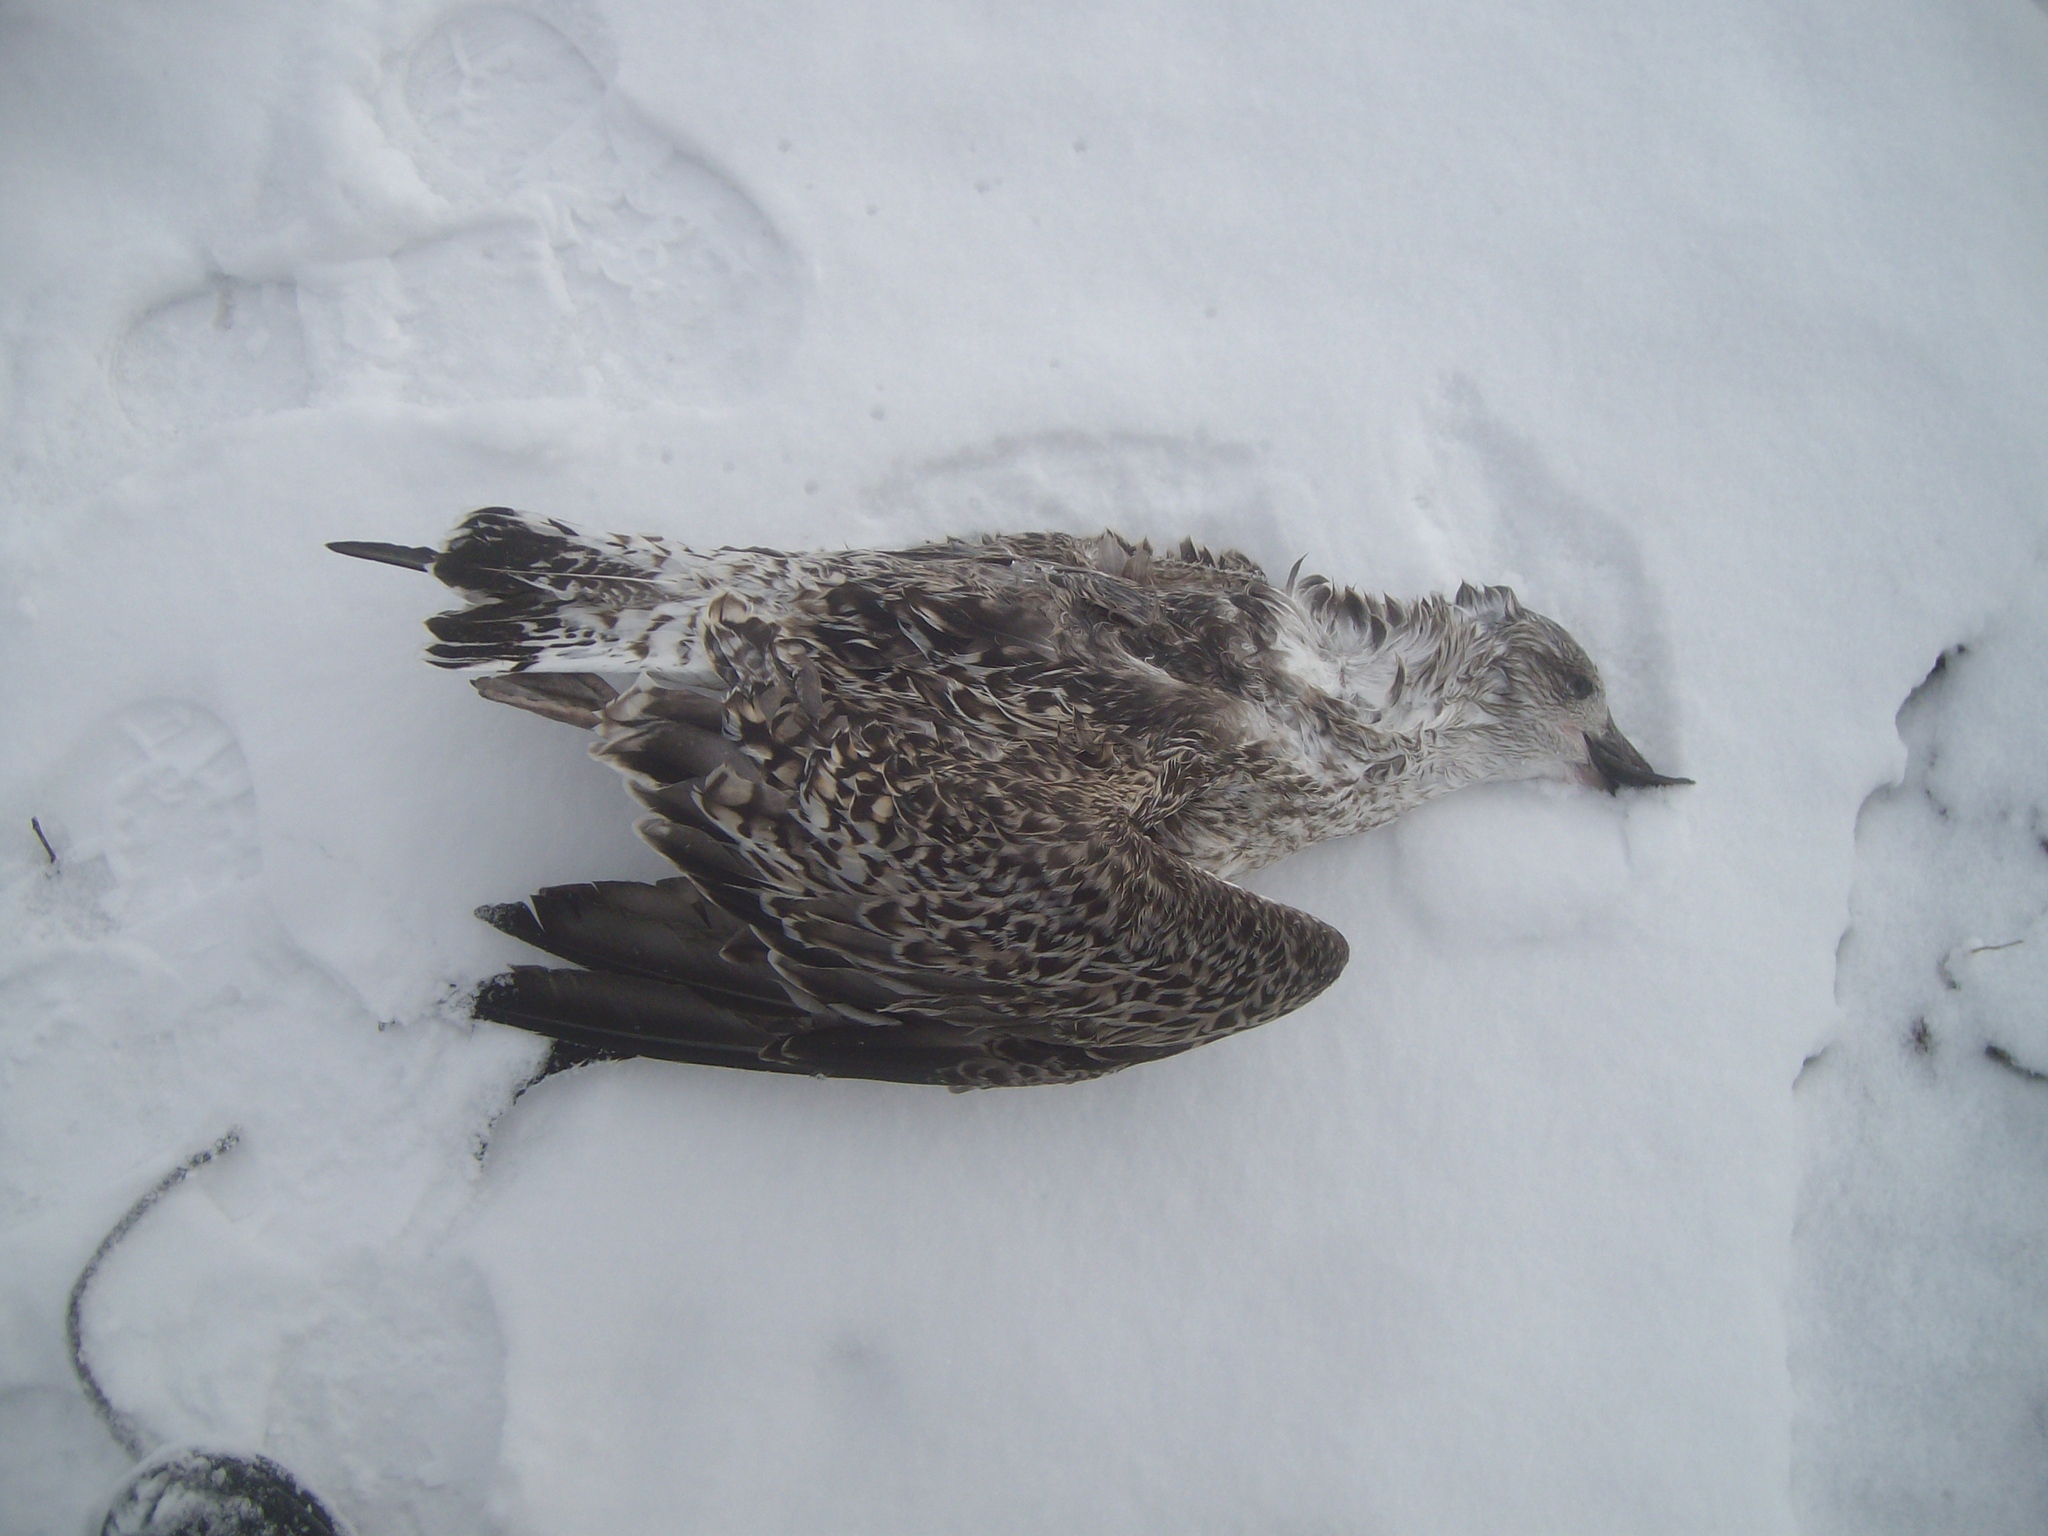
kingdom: Animalia
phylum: Chordata
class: Aves
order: Charadriiformes
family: Laridae
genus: Larus
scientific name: Larus marinus
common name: Great black-backed gull
